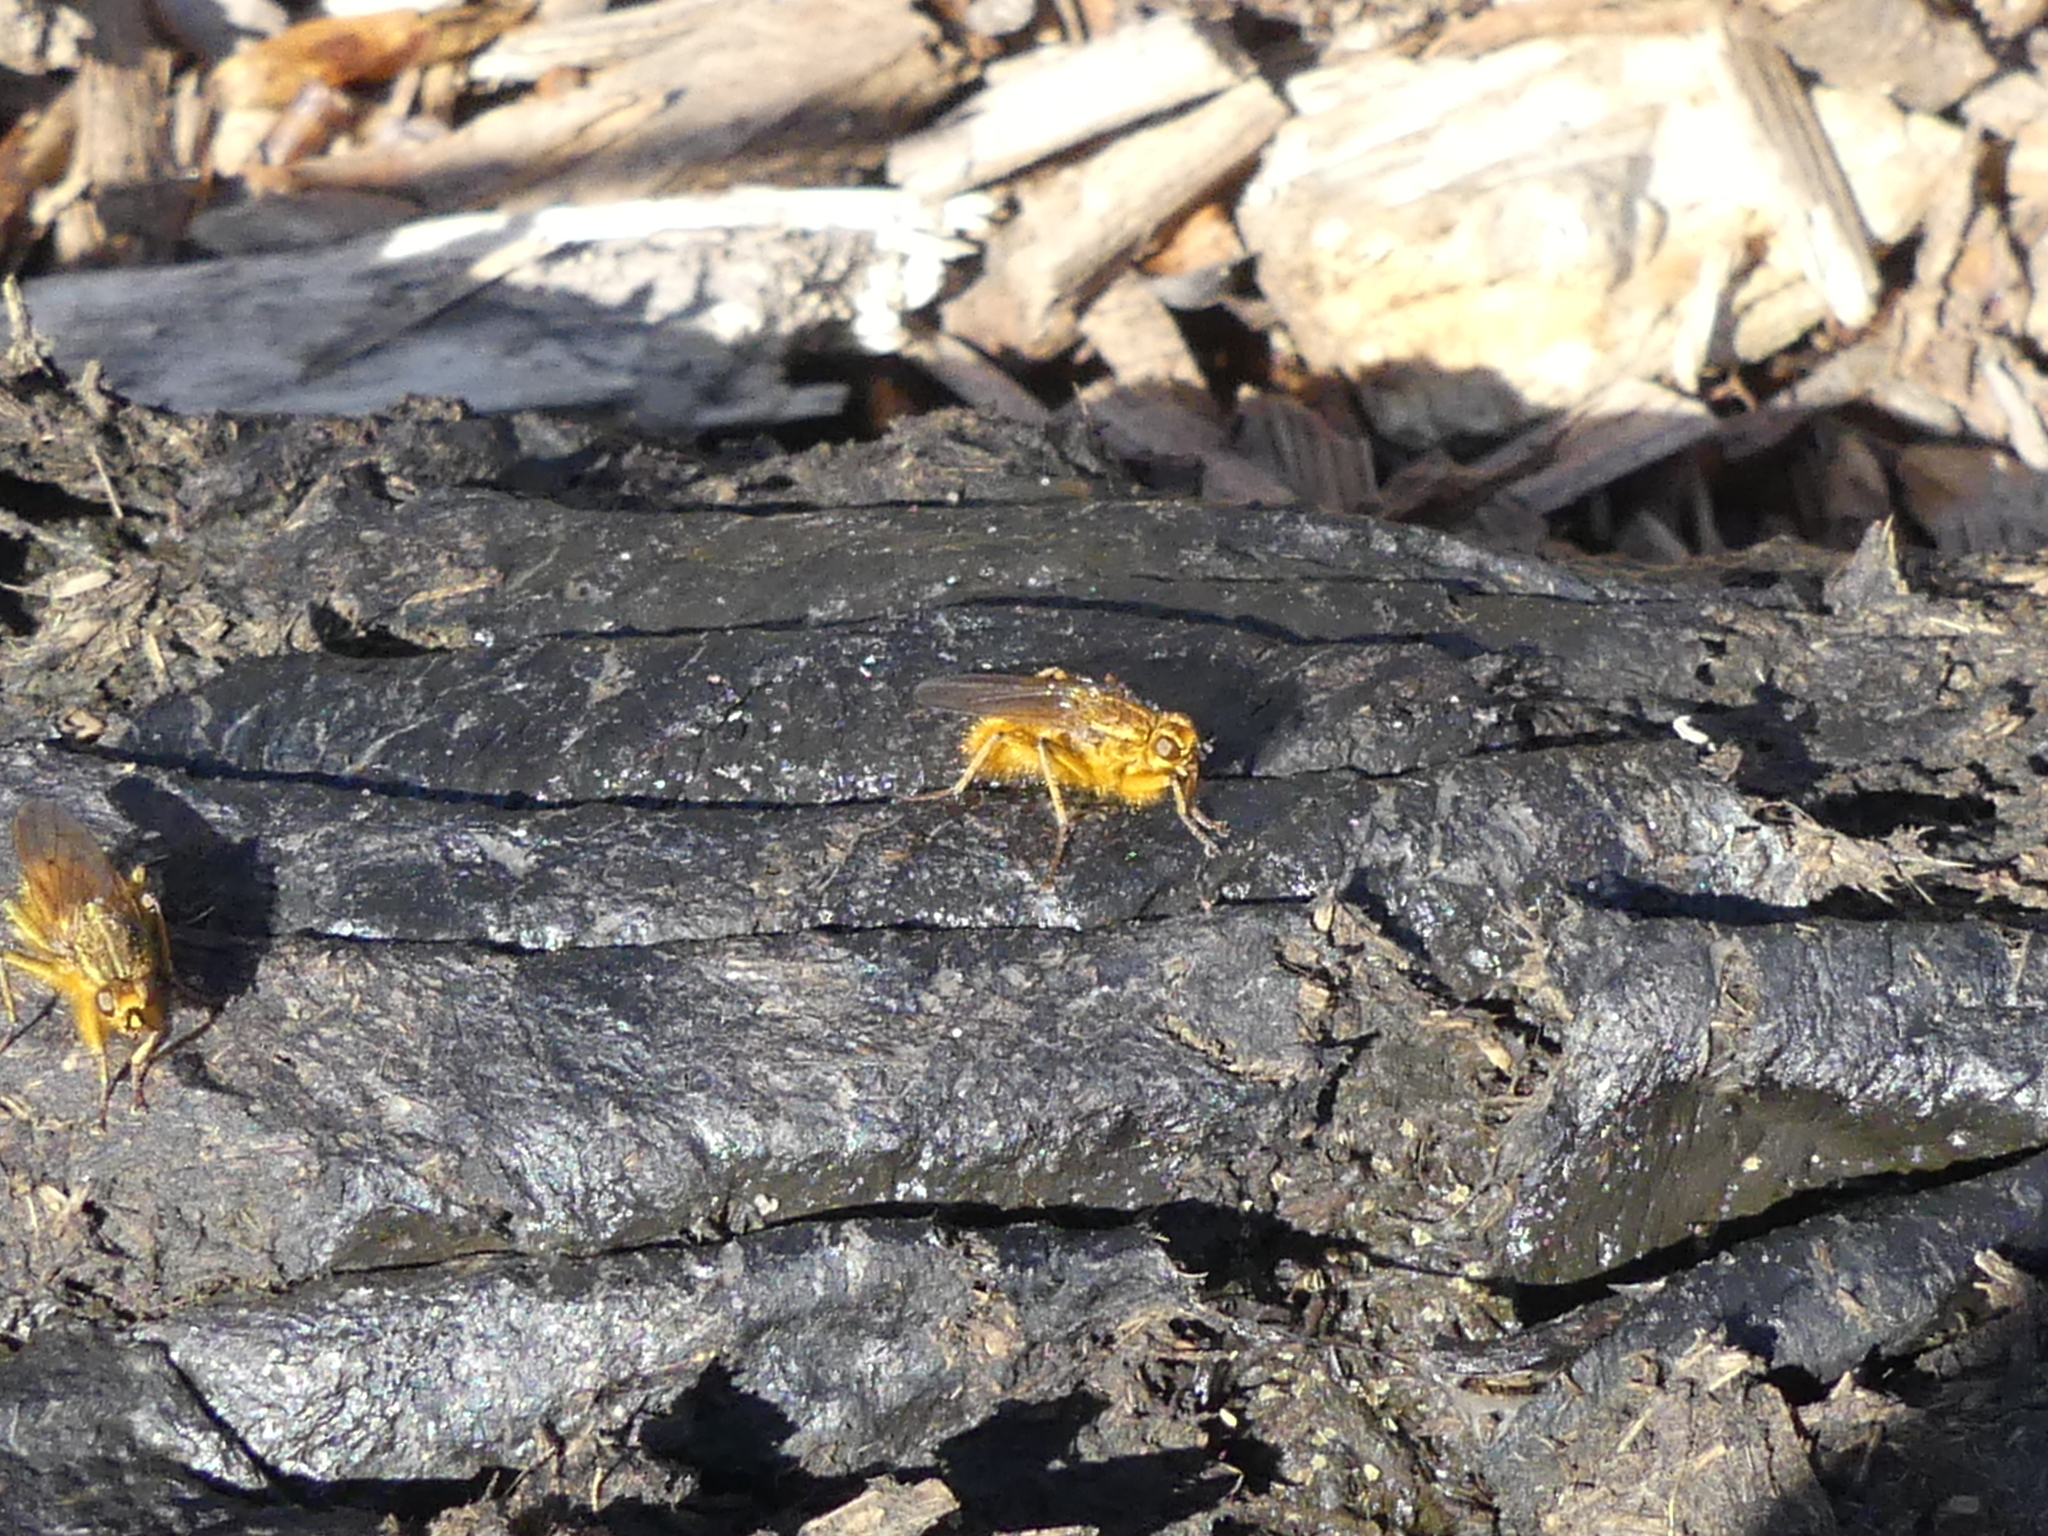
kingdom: Animalia
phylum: Arthropoda
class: Insecta
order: Diptera
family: Scathophagidae
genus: Scathophaga
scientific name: Scathophaga stercoraria
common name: Yellow dung fly
